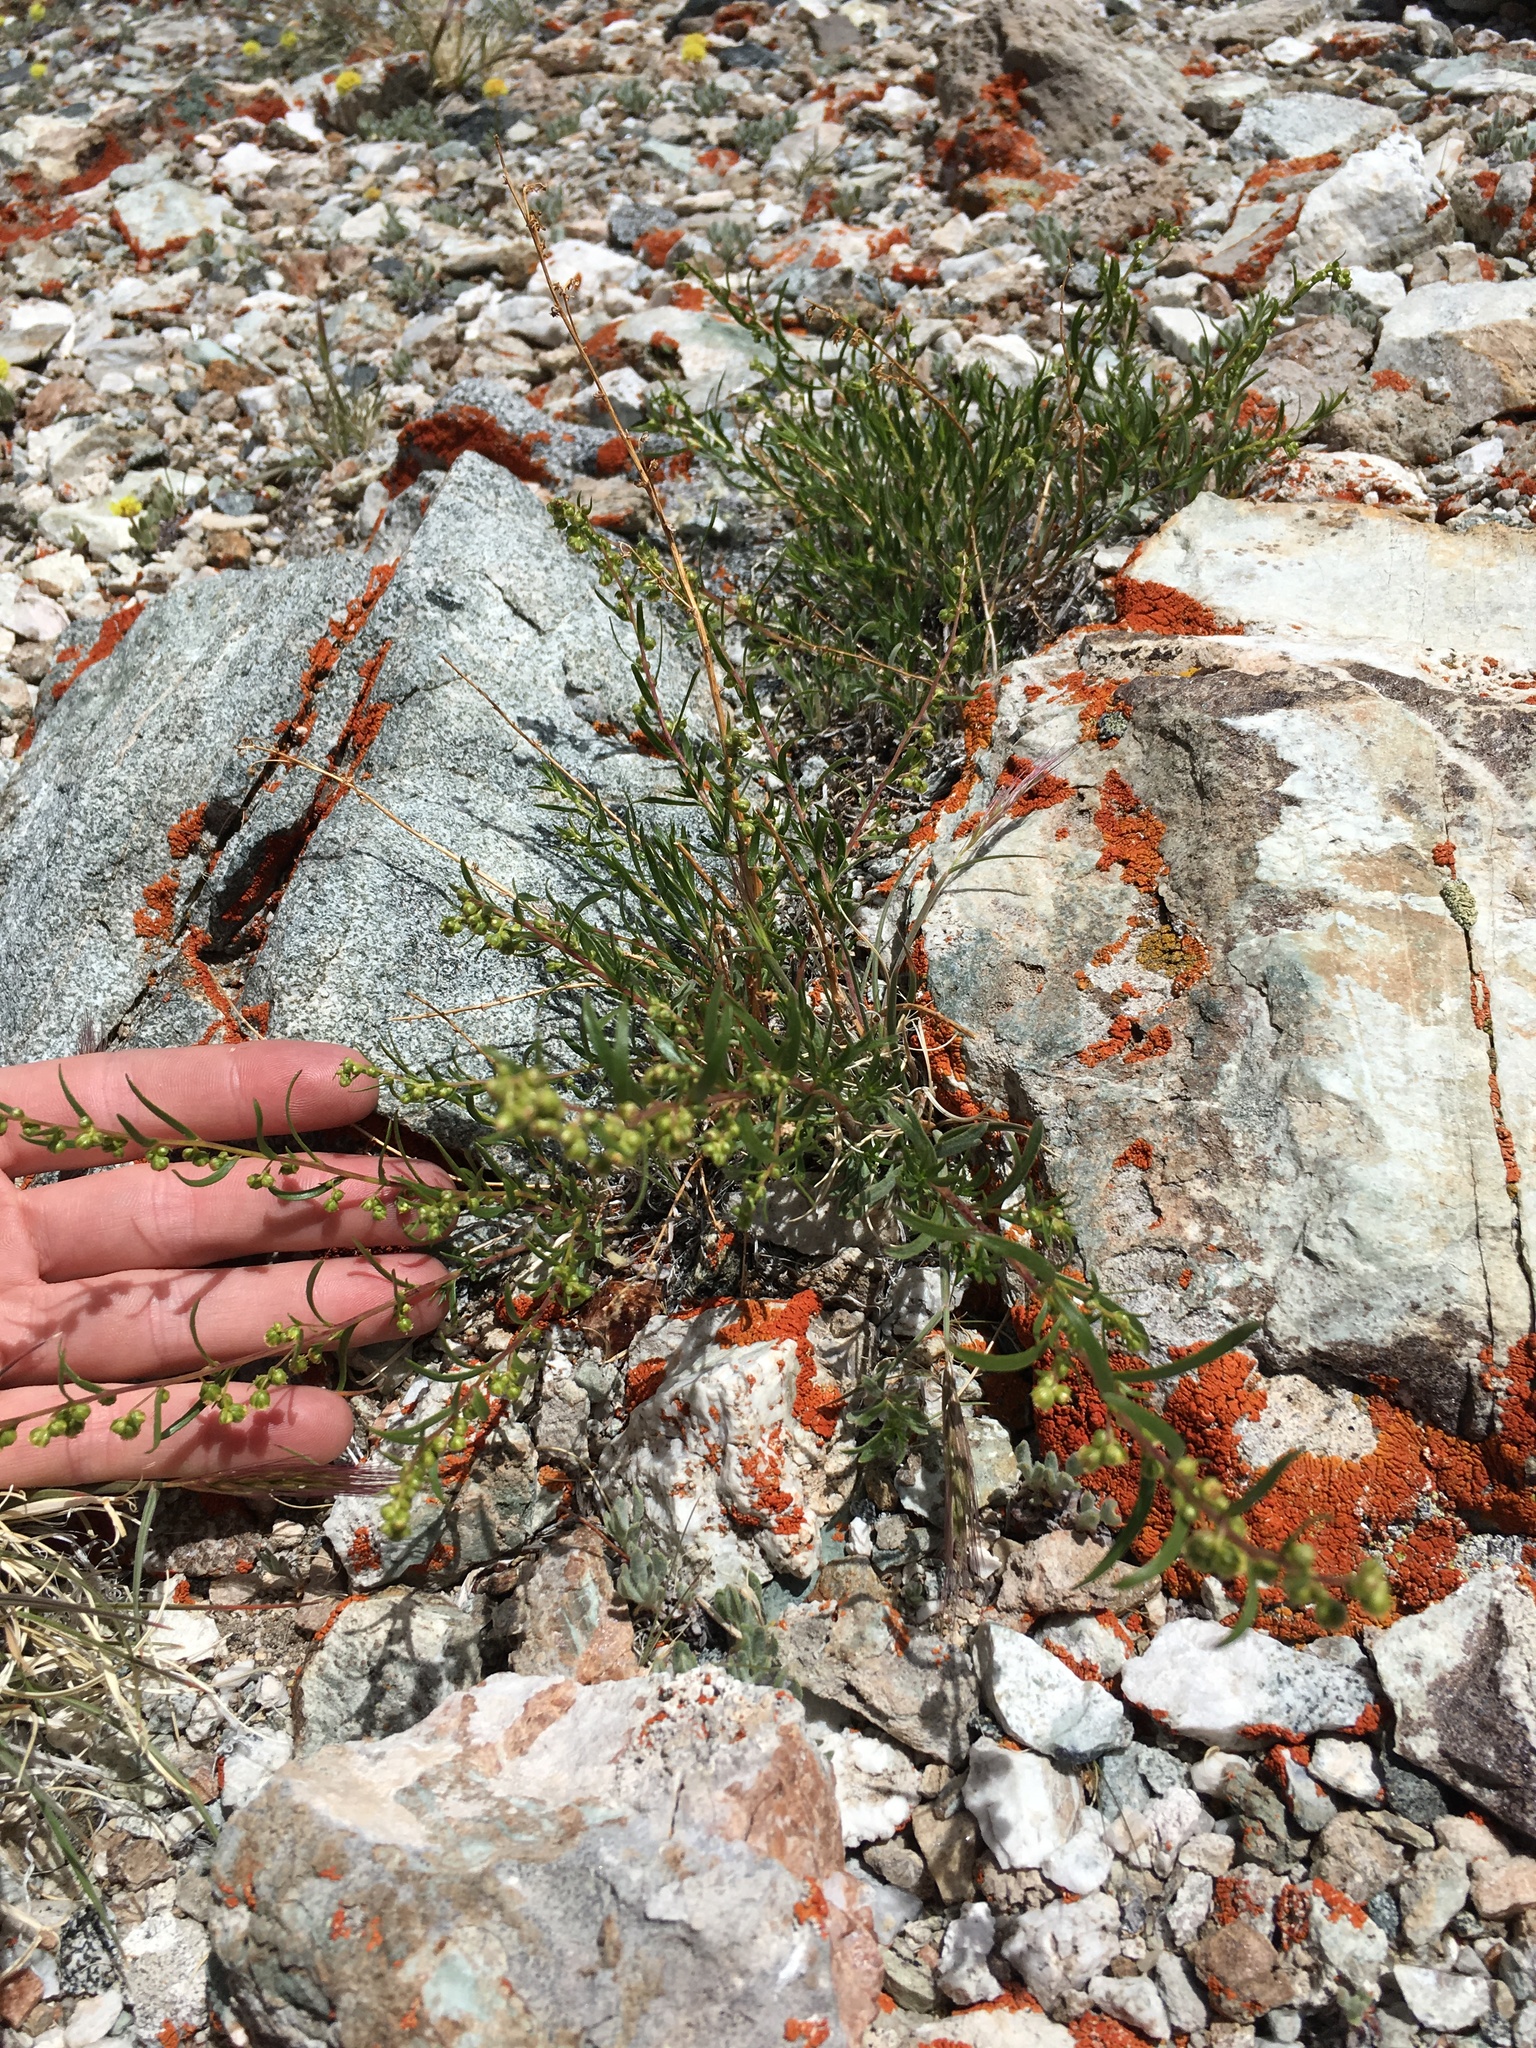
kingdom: Plantae
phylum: Tracheophyta
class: Magnoliopsida
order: Asterales
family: Asteraceae
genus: Artemisia
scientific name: Artemisia dracunculus
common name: Tarragon
